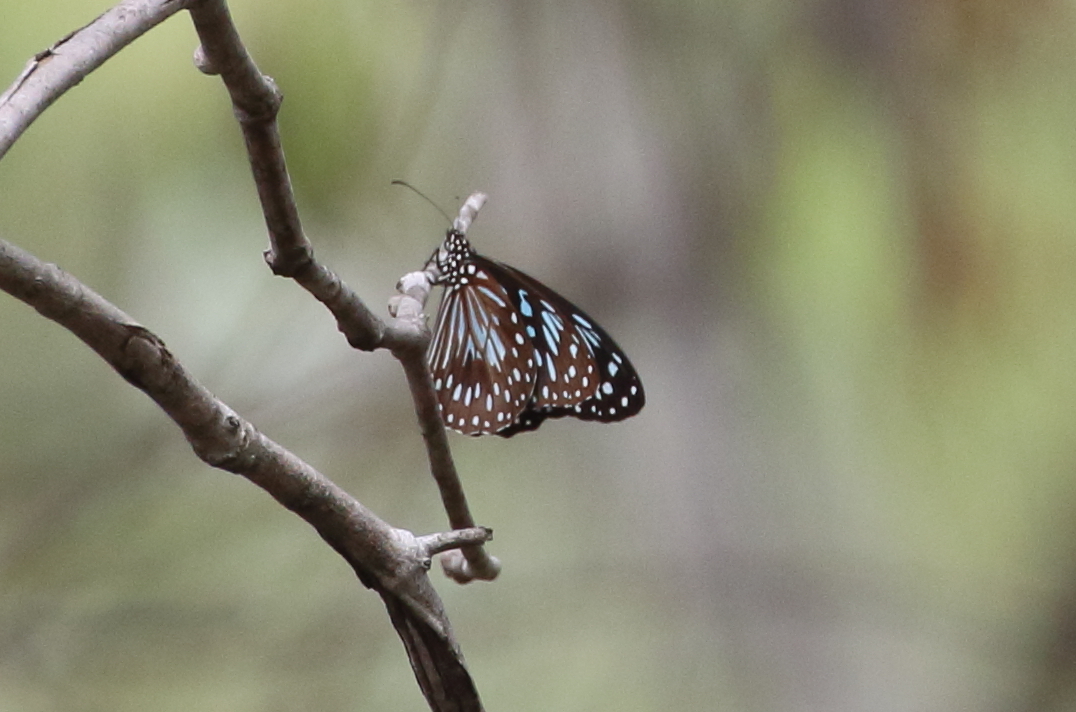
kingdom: Animalia
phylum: Arthropoda
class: Insecta
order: Lepidoptera
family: Nymphalidae
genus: Tirumala
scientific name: Tirumala hamata
